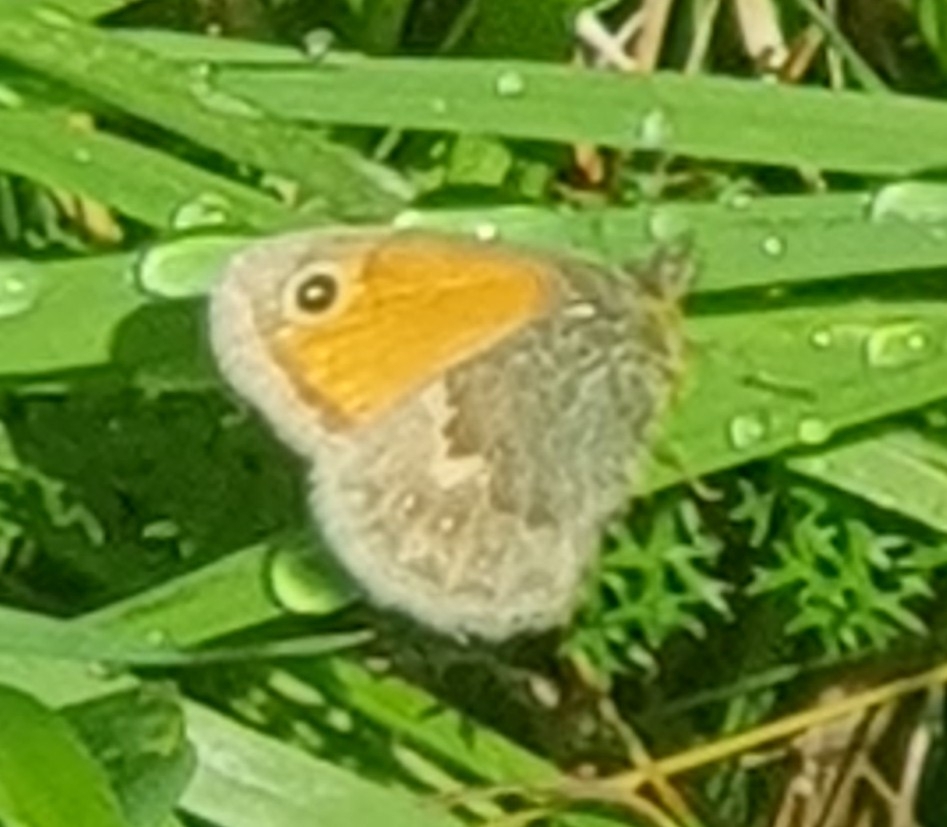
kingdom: Animalia
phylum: Arthropoda
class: Insecta
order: Lepidoptera
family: Nymphalidae
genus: Coenonympha
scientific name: Coenonympha pamphilus
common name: Small heath
